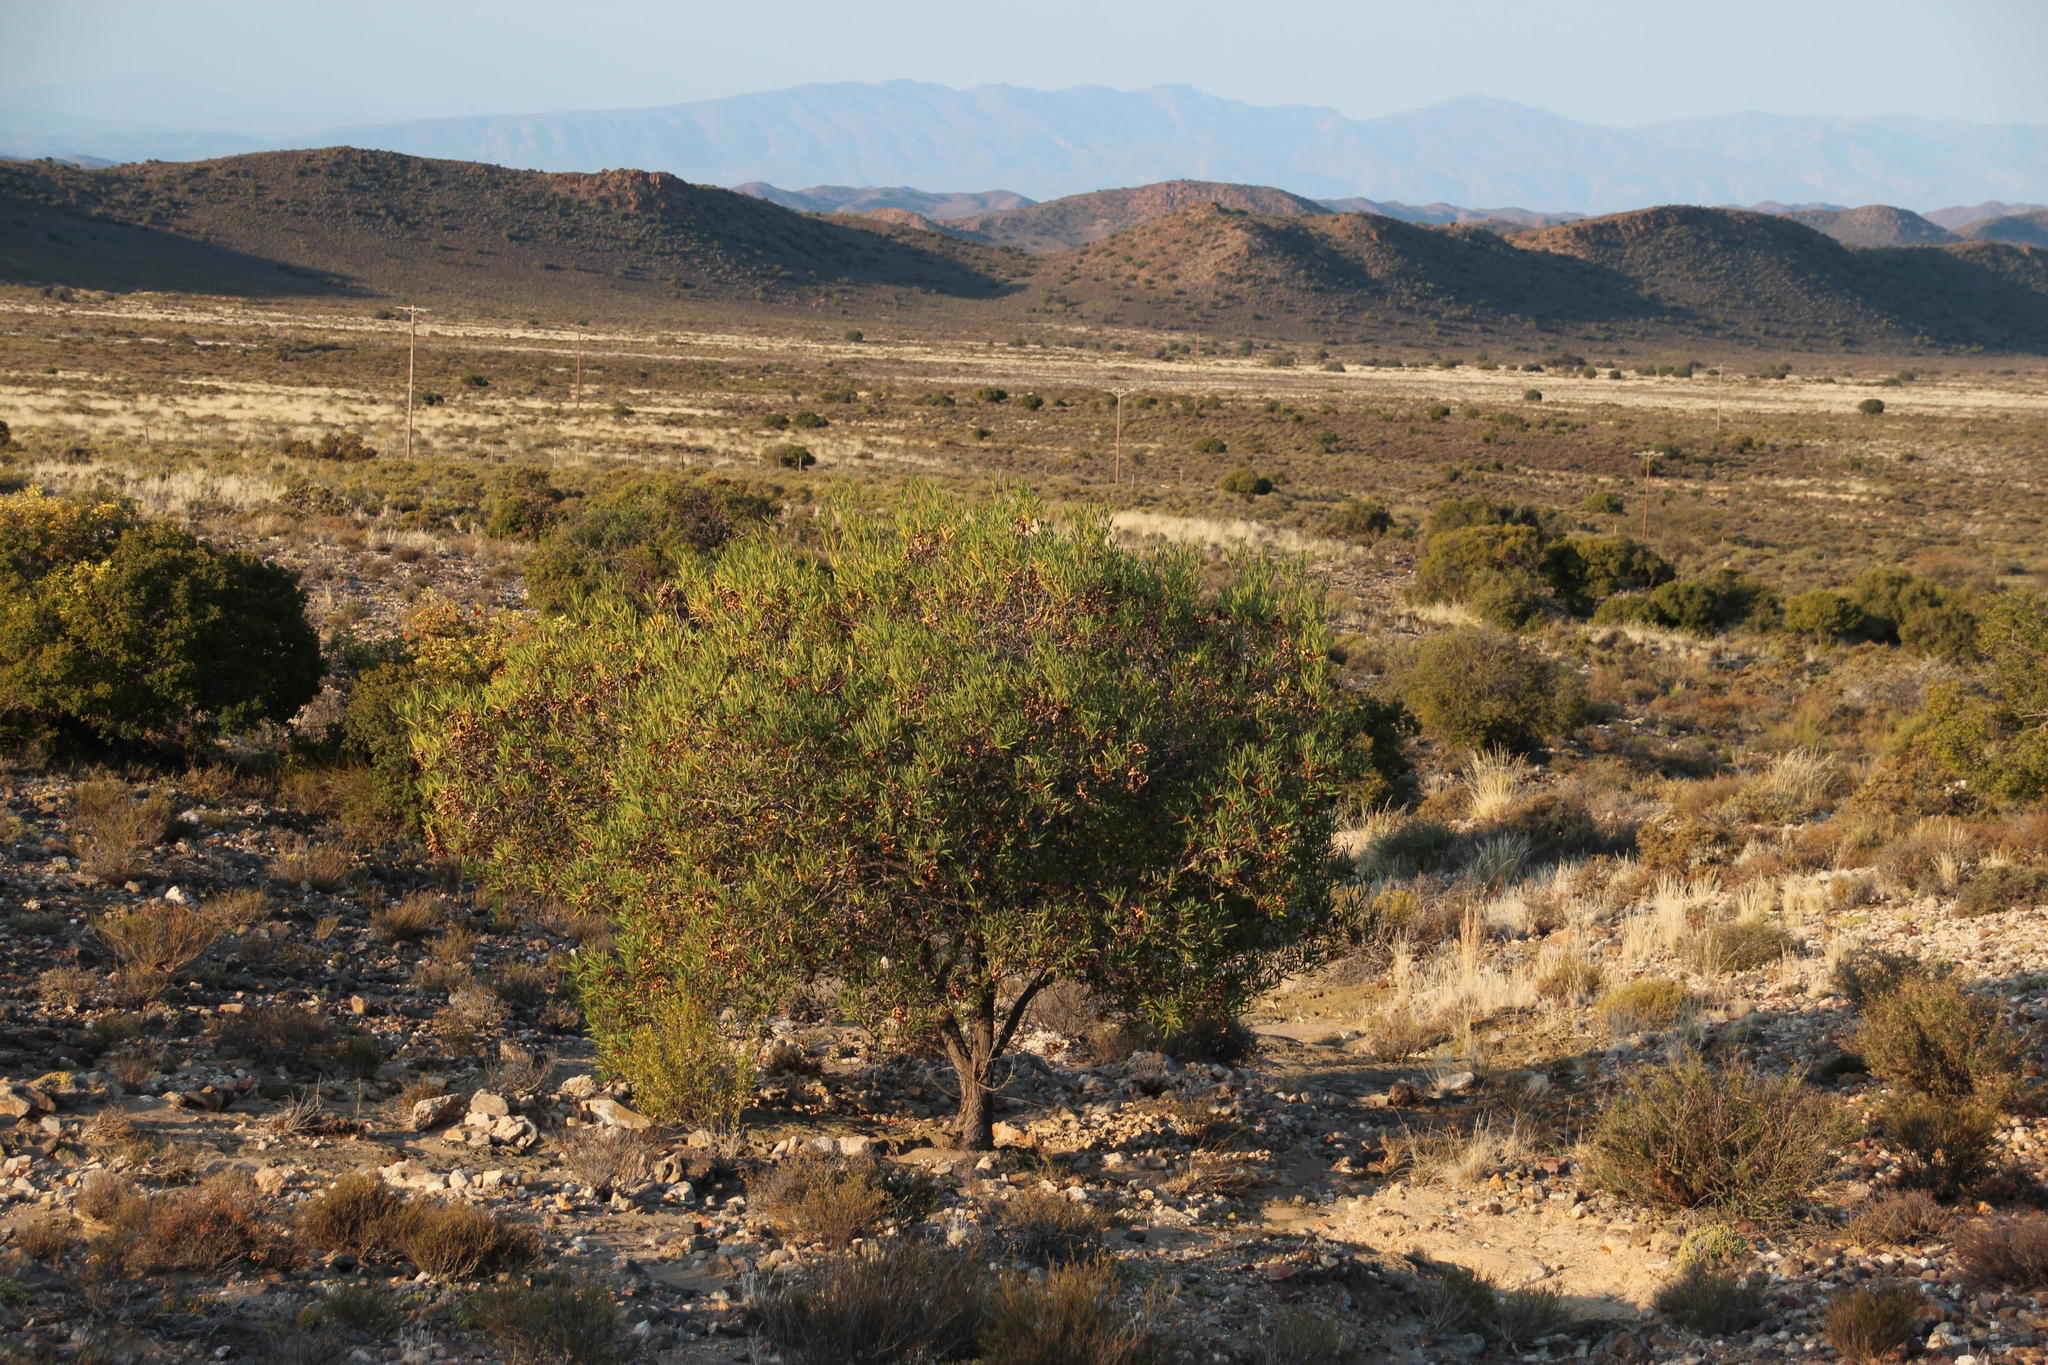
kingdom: Plantae
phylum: Tracheophyta
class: Magnoliopsida
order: Fabales
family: Fabaceae
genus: Acacia
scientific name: Acacia cyclops
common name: Coastal wattle
